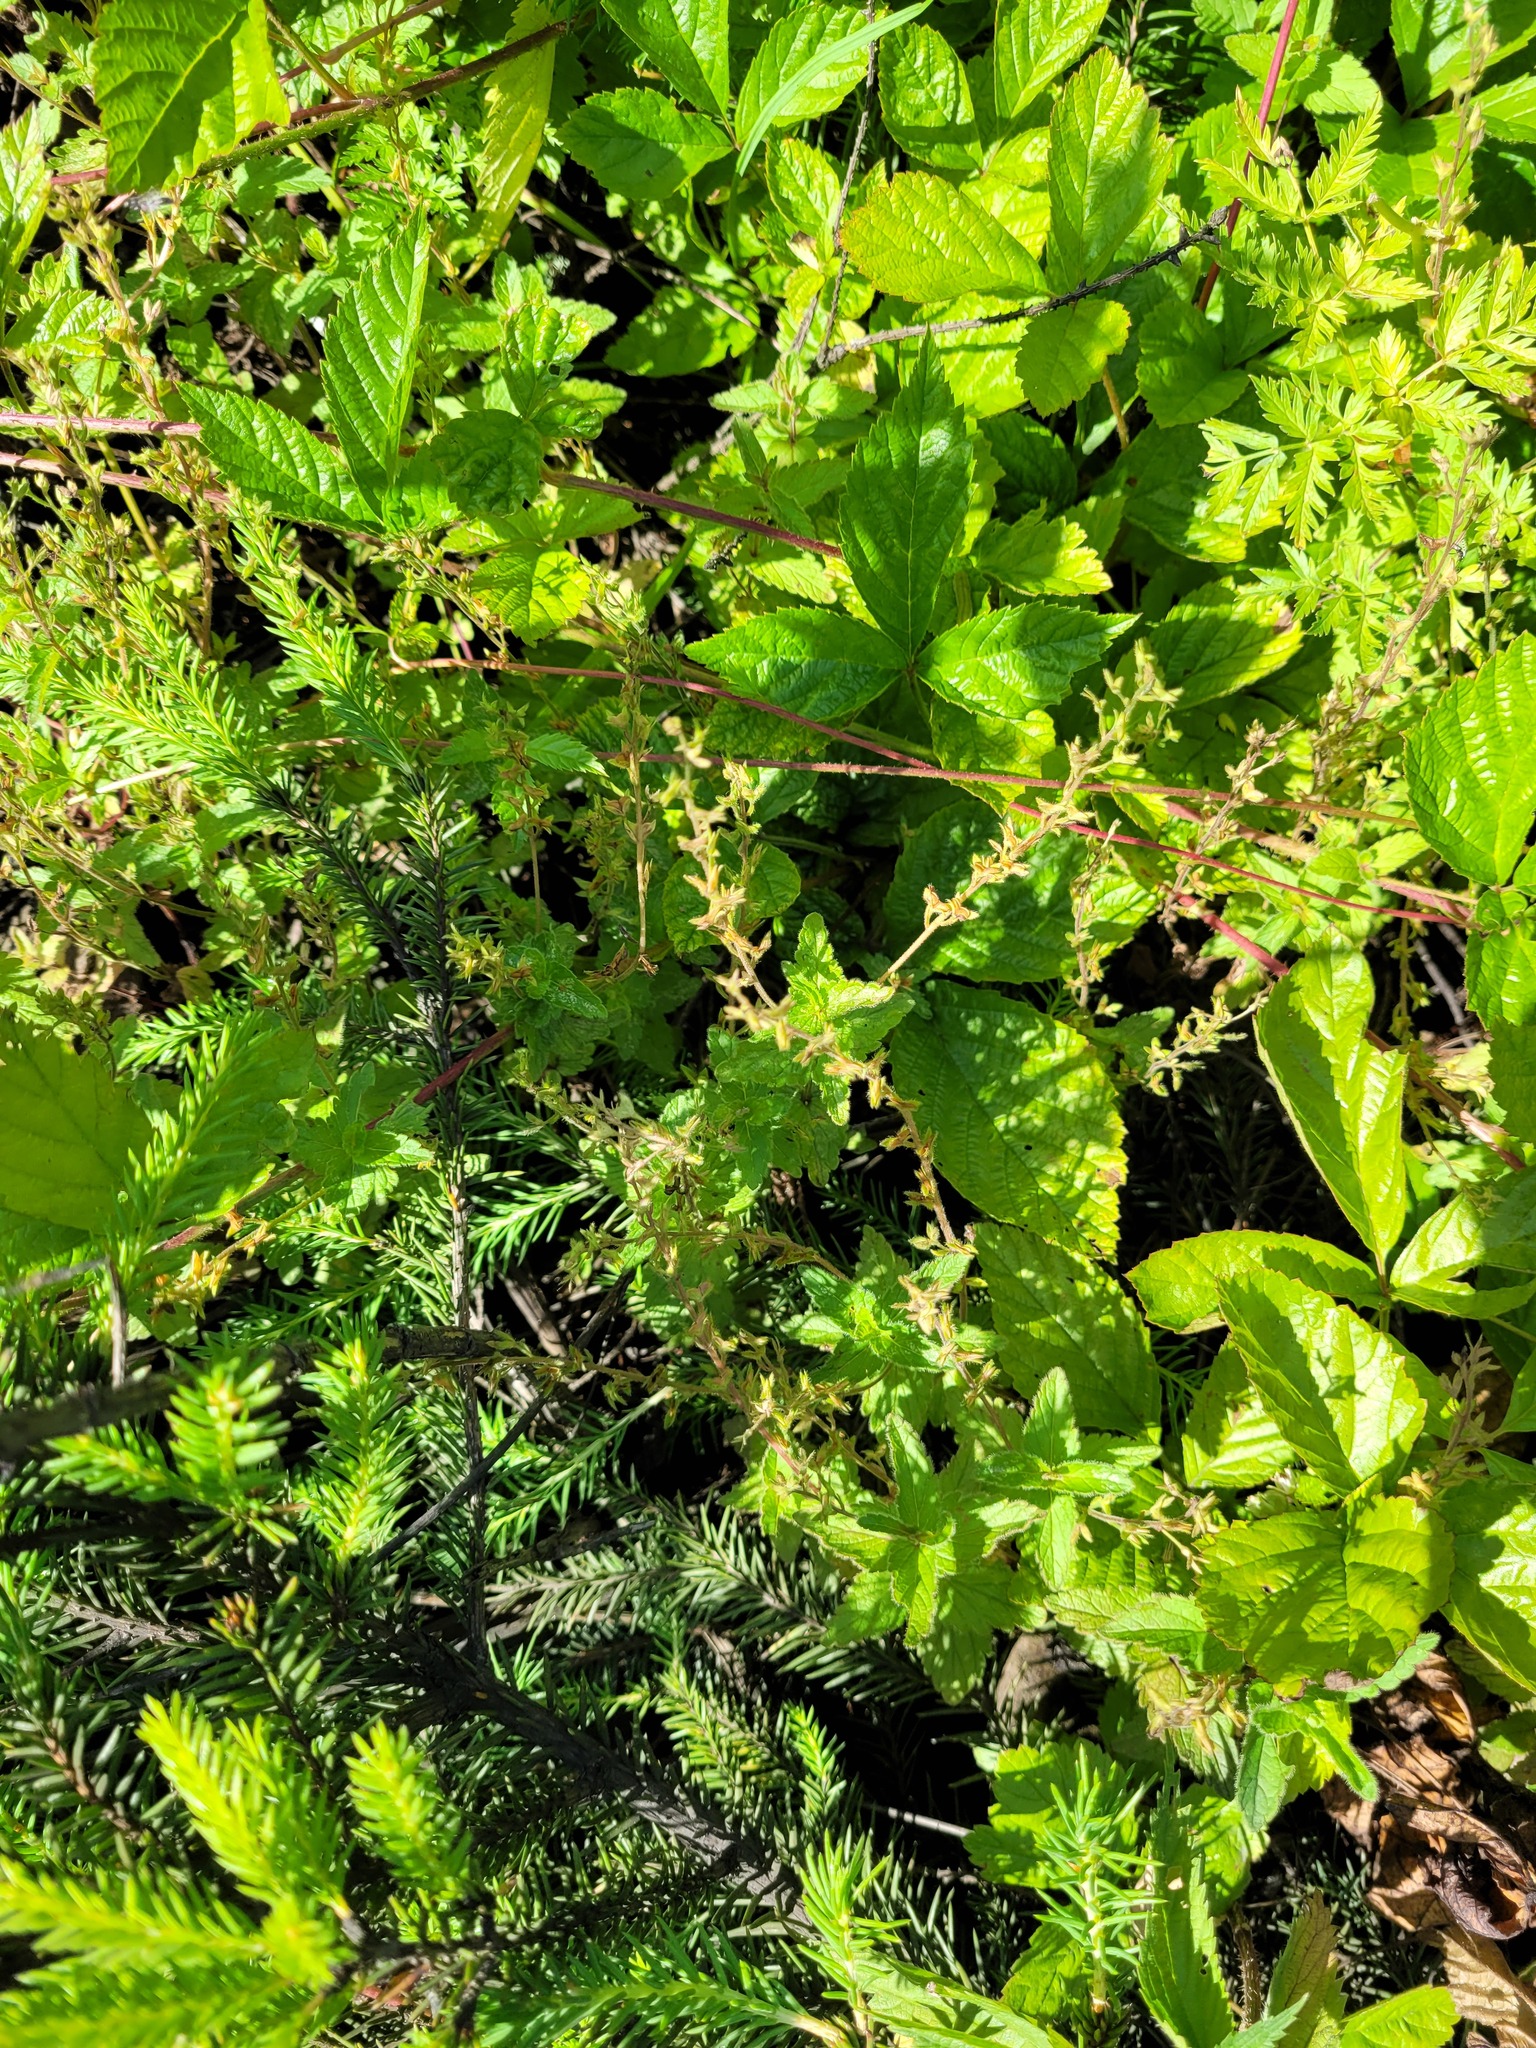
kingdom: Plantae
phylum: Tracheophyta
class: Magnoliopsida
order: Lamiales
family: Plantaginaceae
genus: Veronica
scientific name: Veronica chamaedrys
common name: Germander speedwell
